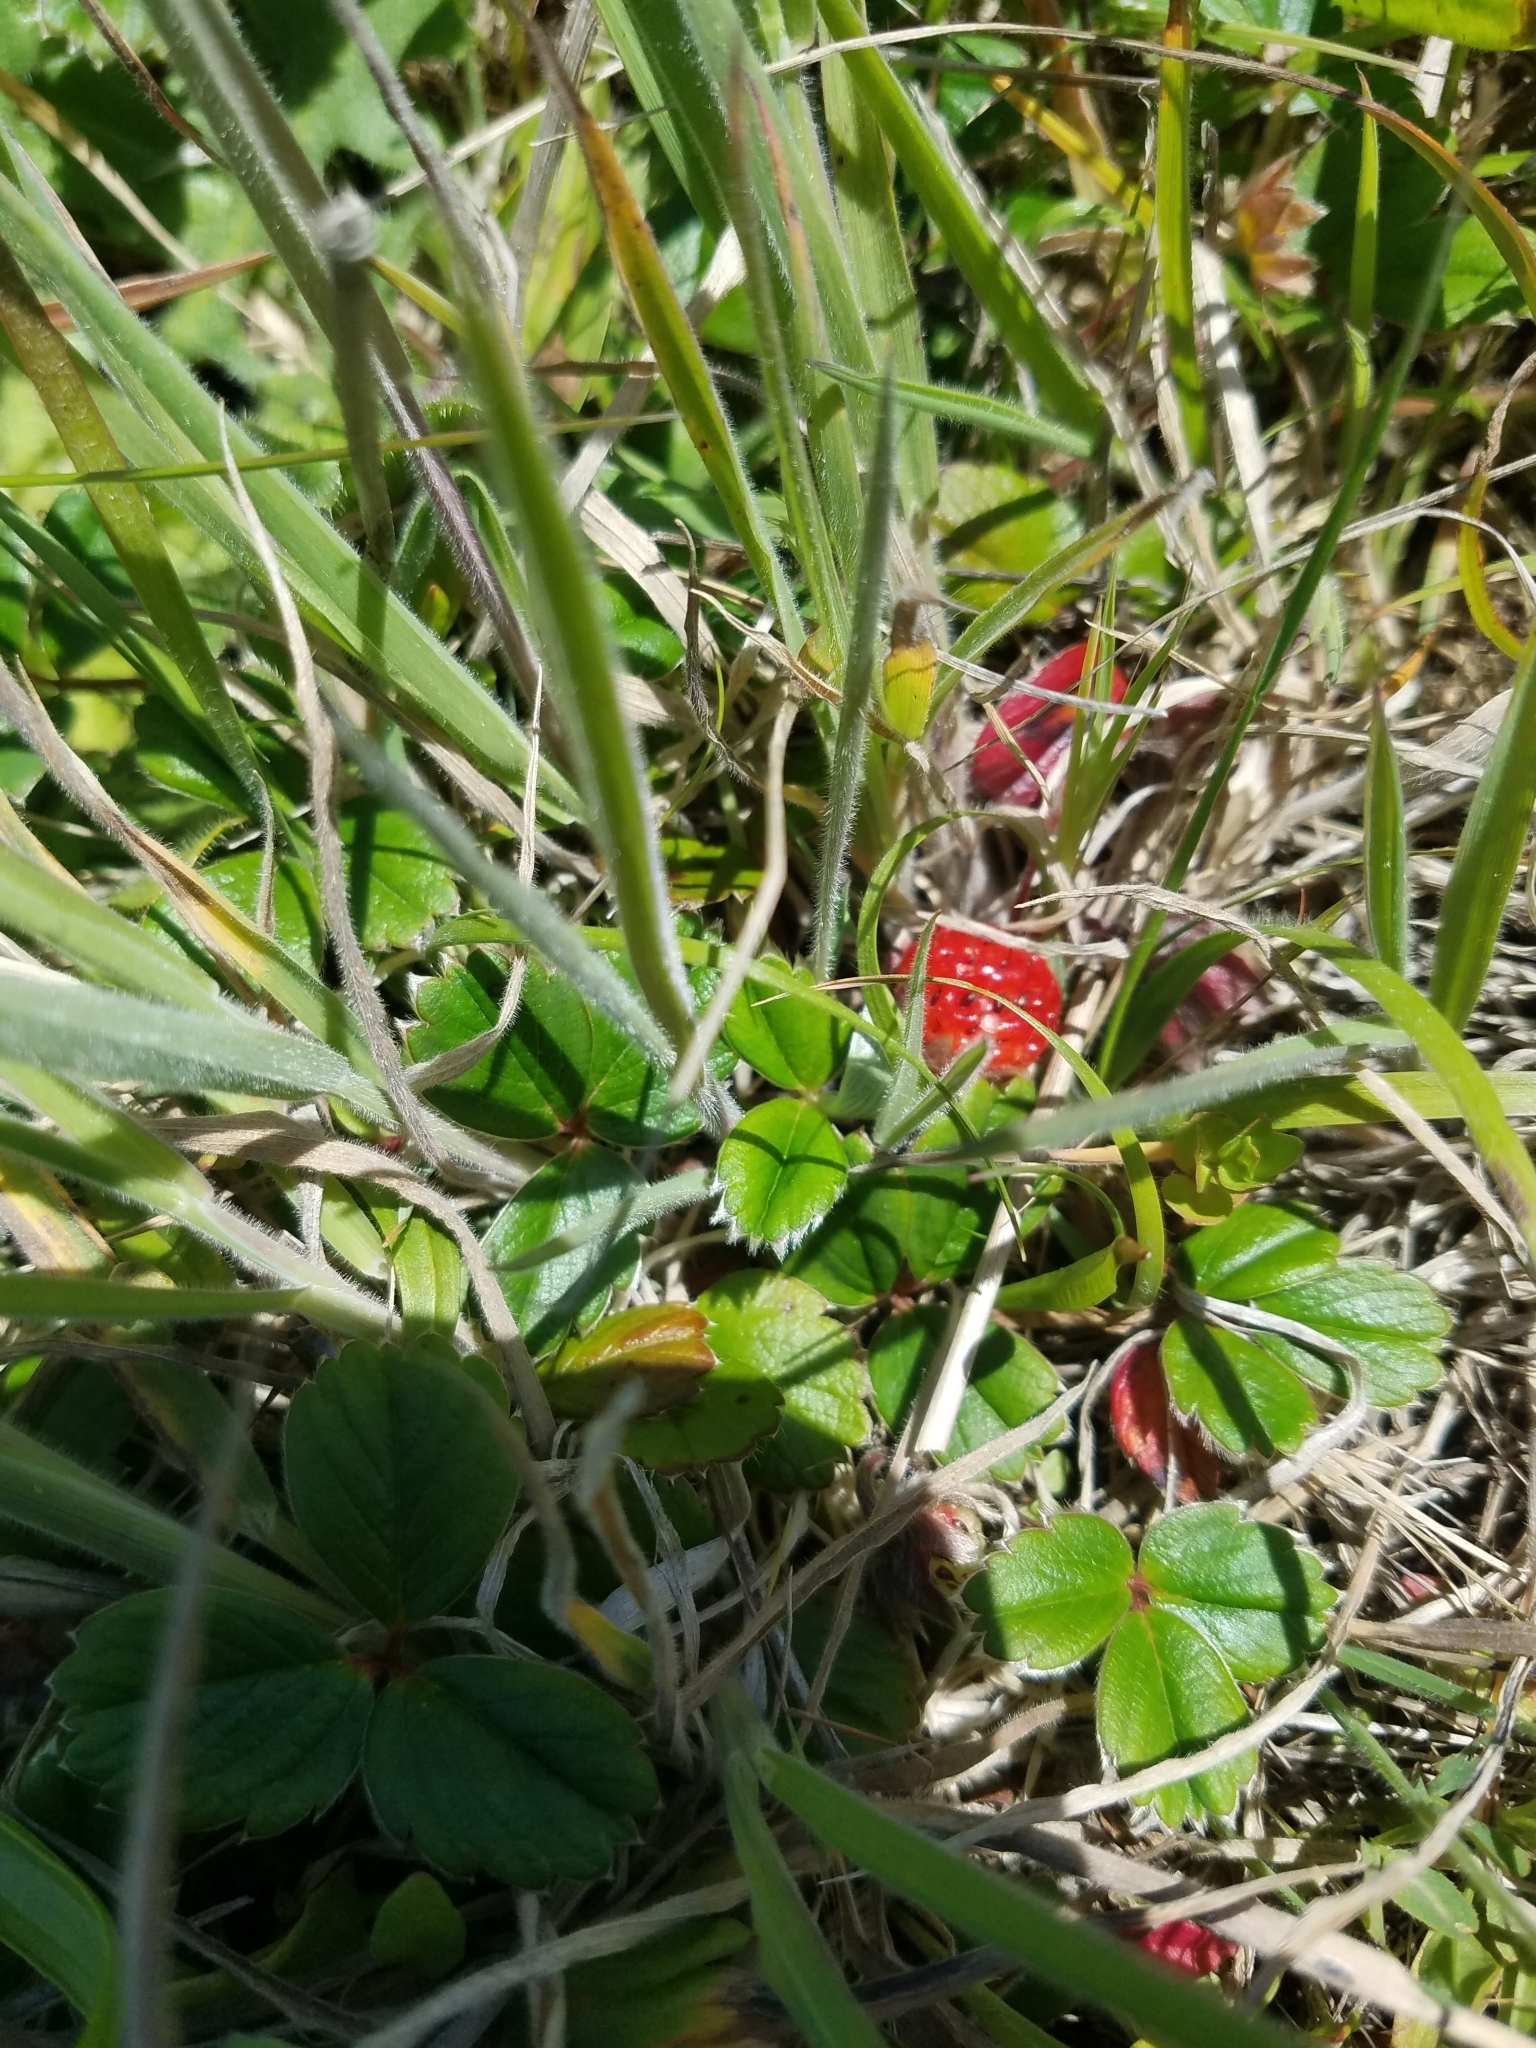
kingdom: Plantae
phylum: Tracheophyta
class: Magnoliopsida
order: Rosales
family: Rosaceae
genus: Fragaria
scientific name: Fragaria chiloensis
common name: Beach strawberry
